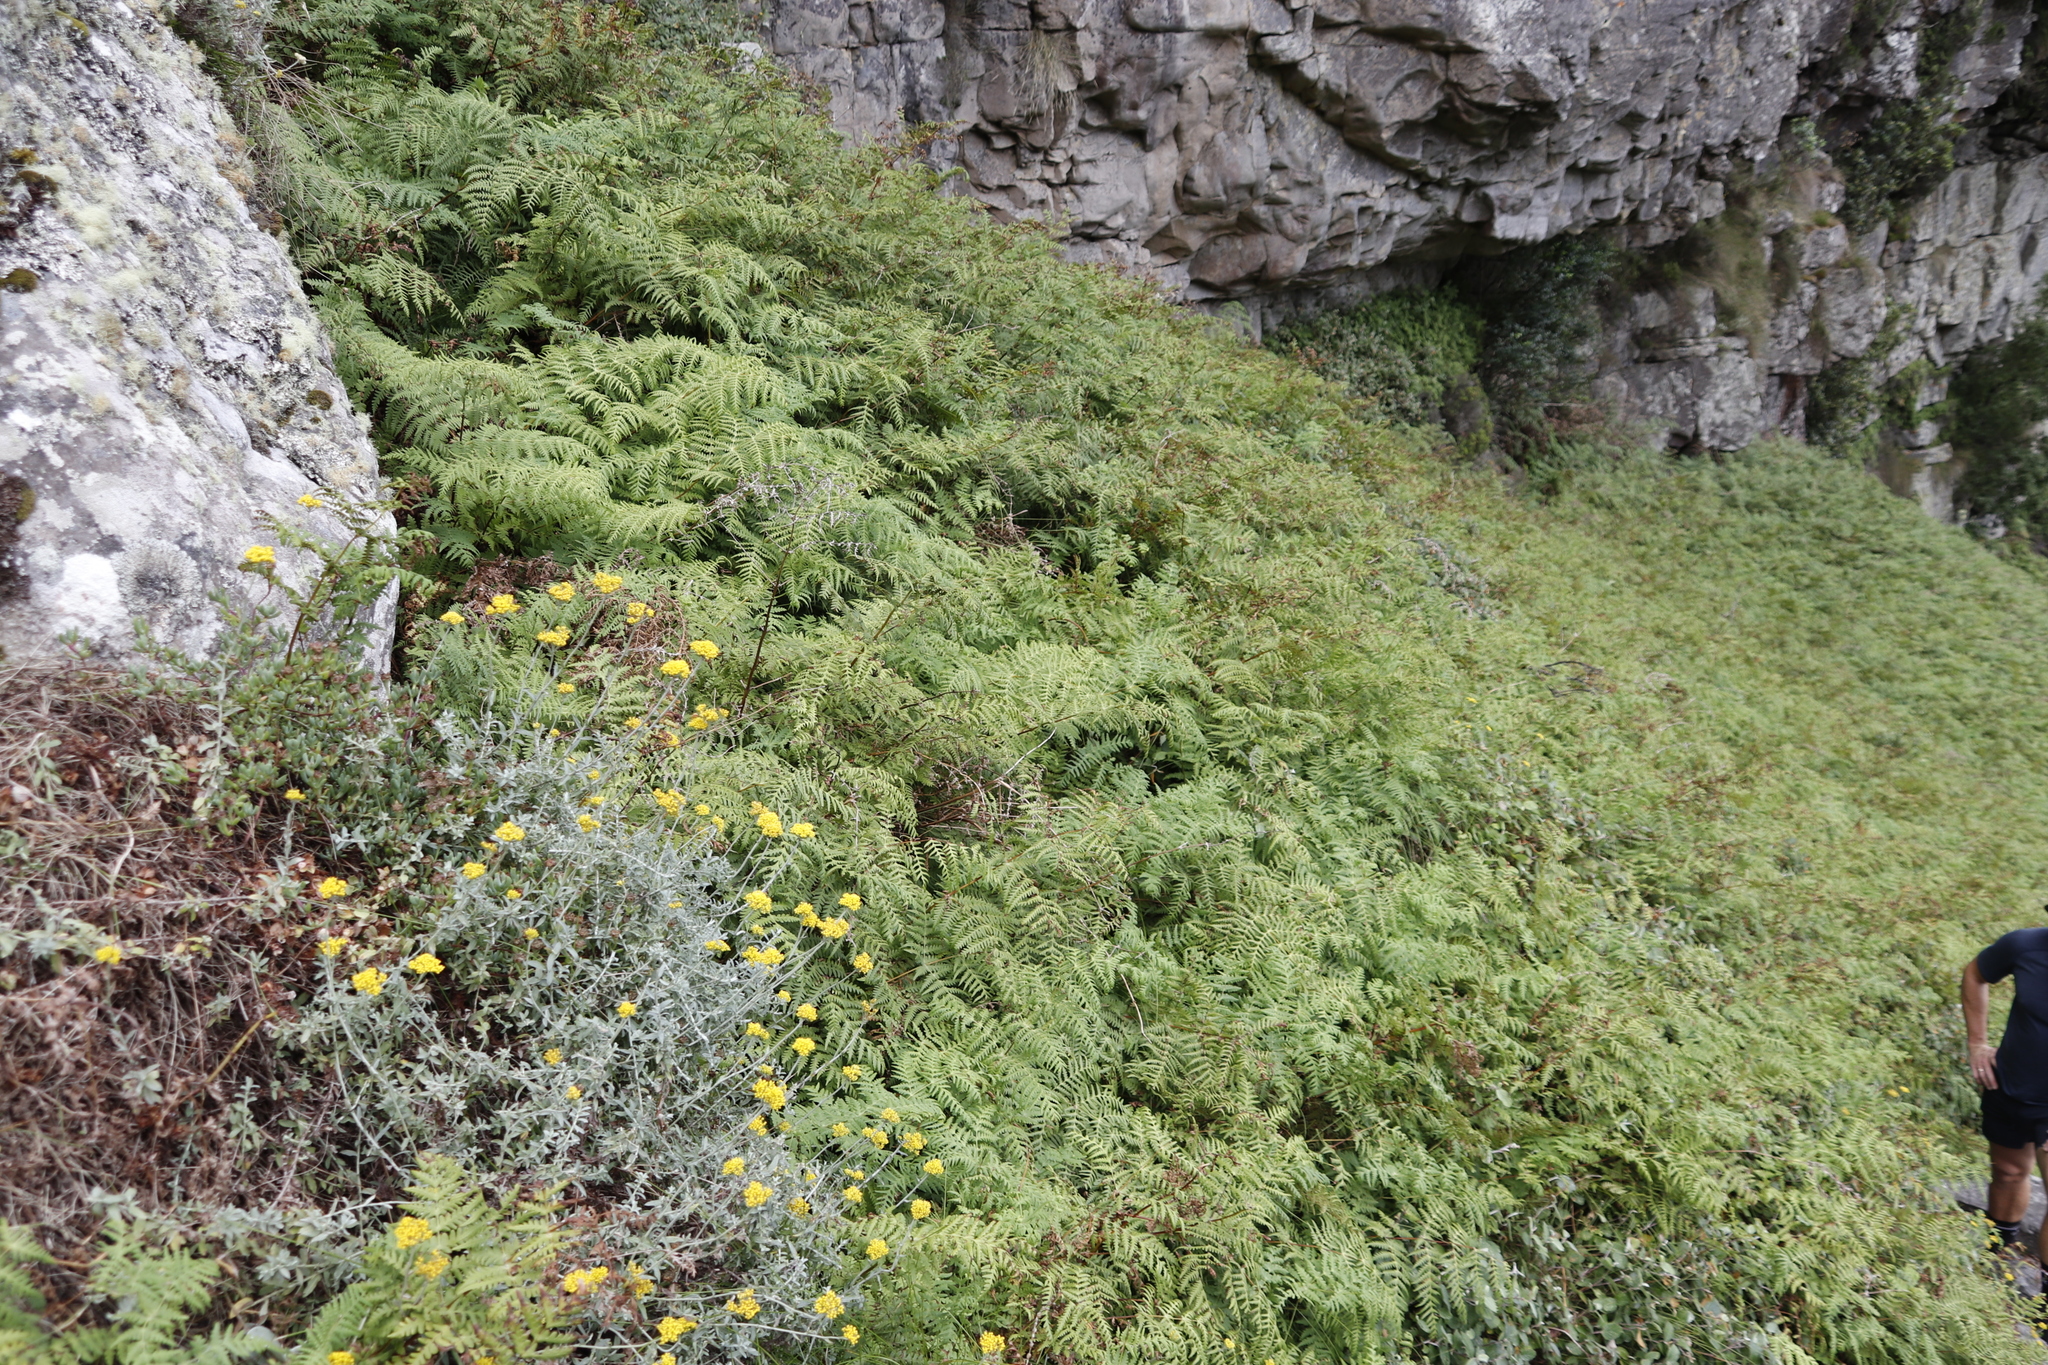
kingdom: Plantae
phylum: Tracheophyta
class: Polypodiopsida
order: Polypodiales
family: Dennstaedtiaceae
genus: Pteridium
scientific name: Pteridium aquilinum
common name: Bracken
